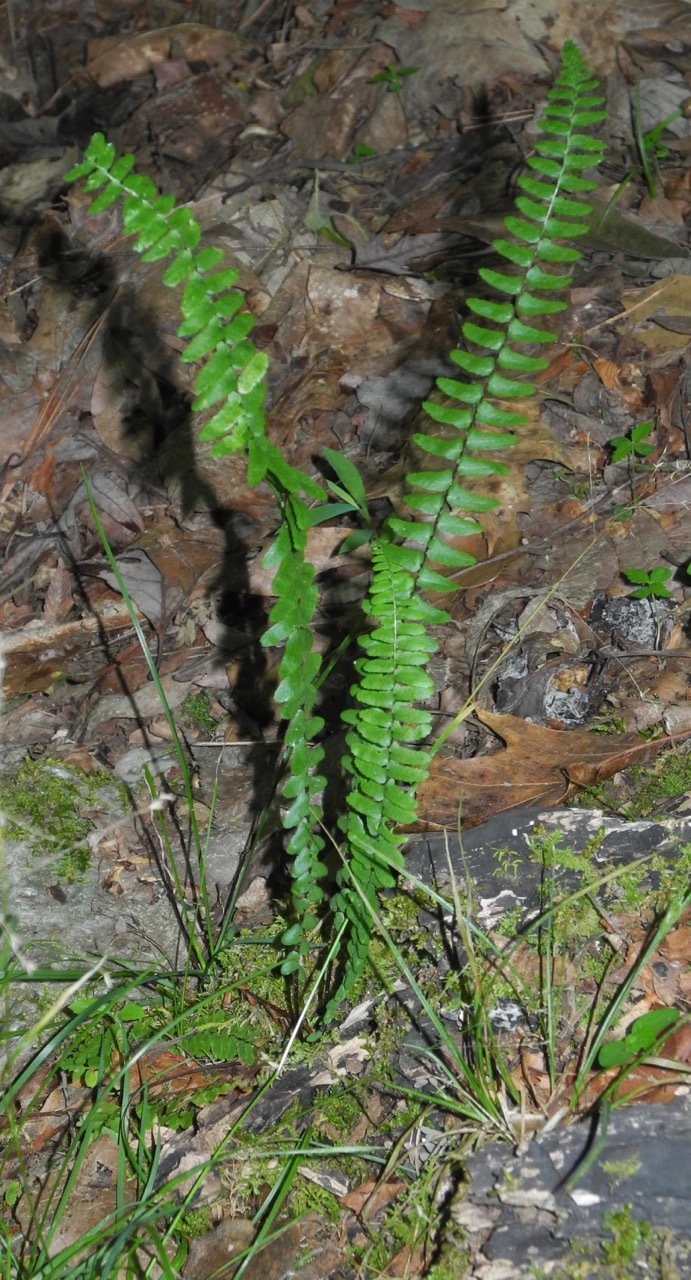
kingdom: Plantae
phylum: Tracheophyta
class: Polypodiopsida
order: Polypodiales
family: Aspleniaceae
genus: Asplenium
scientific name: Asplenium platyneuron
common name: Ebony spleenwort
